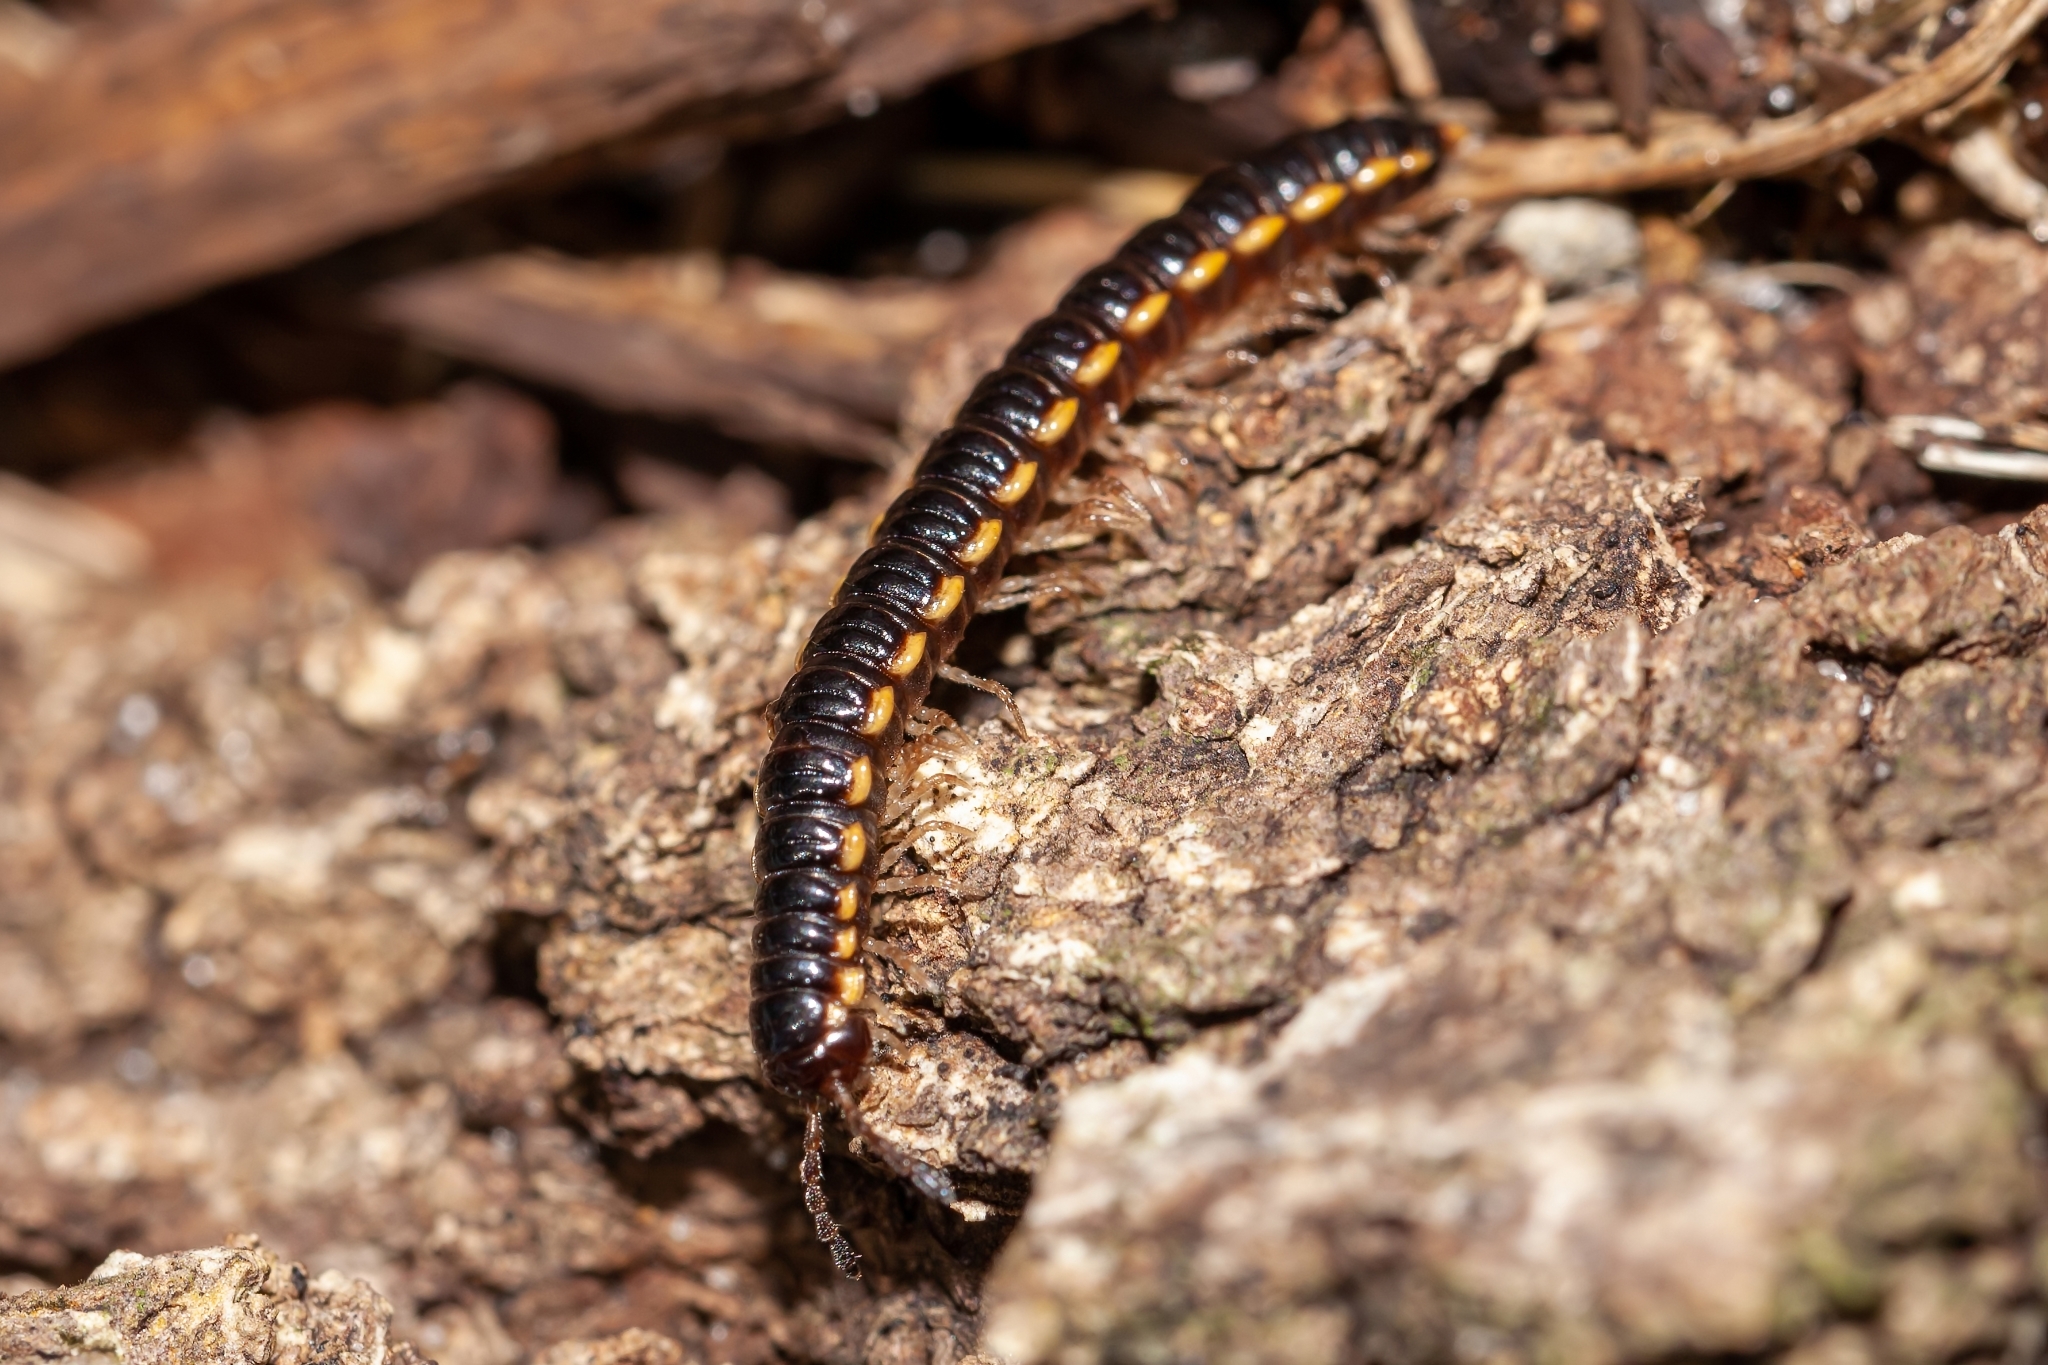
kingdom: Animalia
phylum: Arthropoda
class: Diplopoda
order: Polydesmida
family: Paradoxosomatidae
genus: Orthomorpha
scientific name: Orthomorpha coarctata
